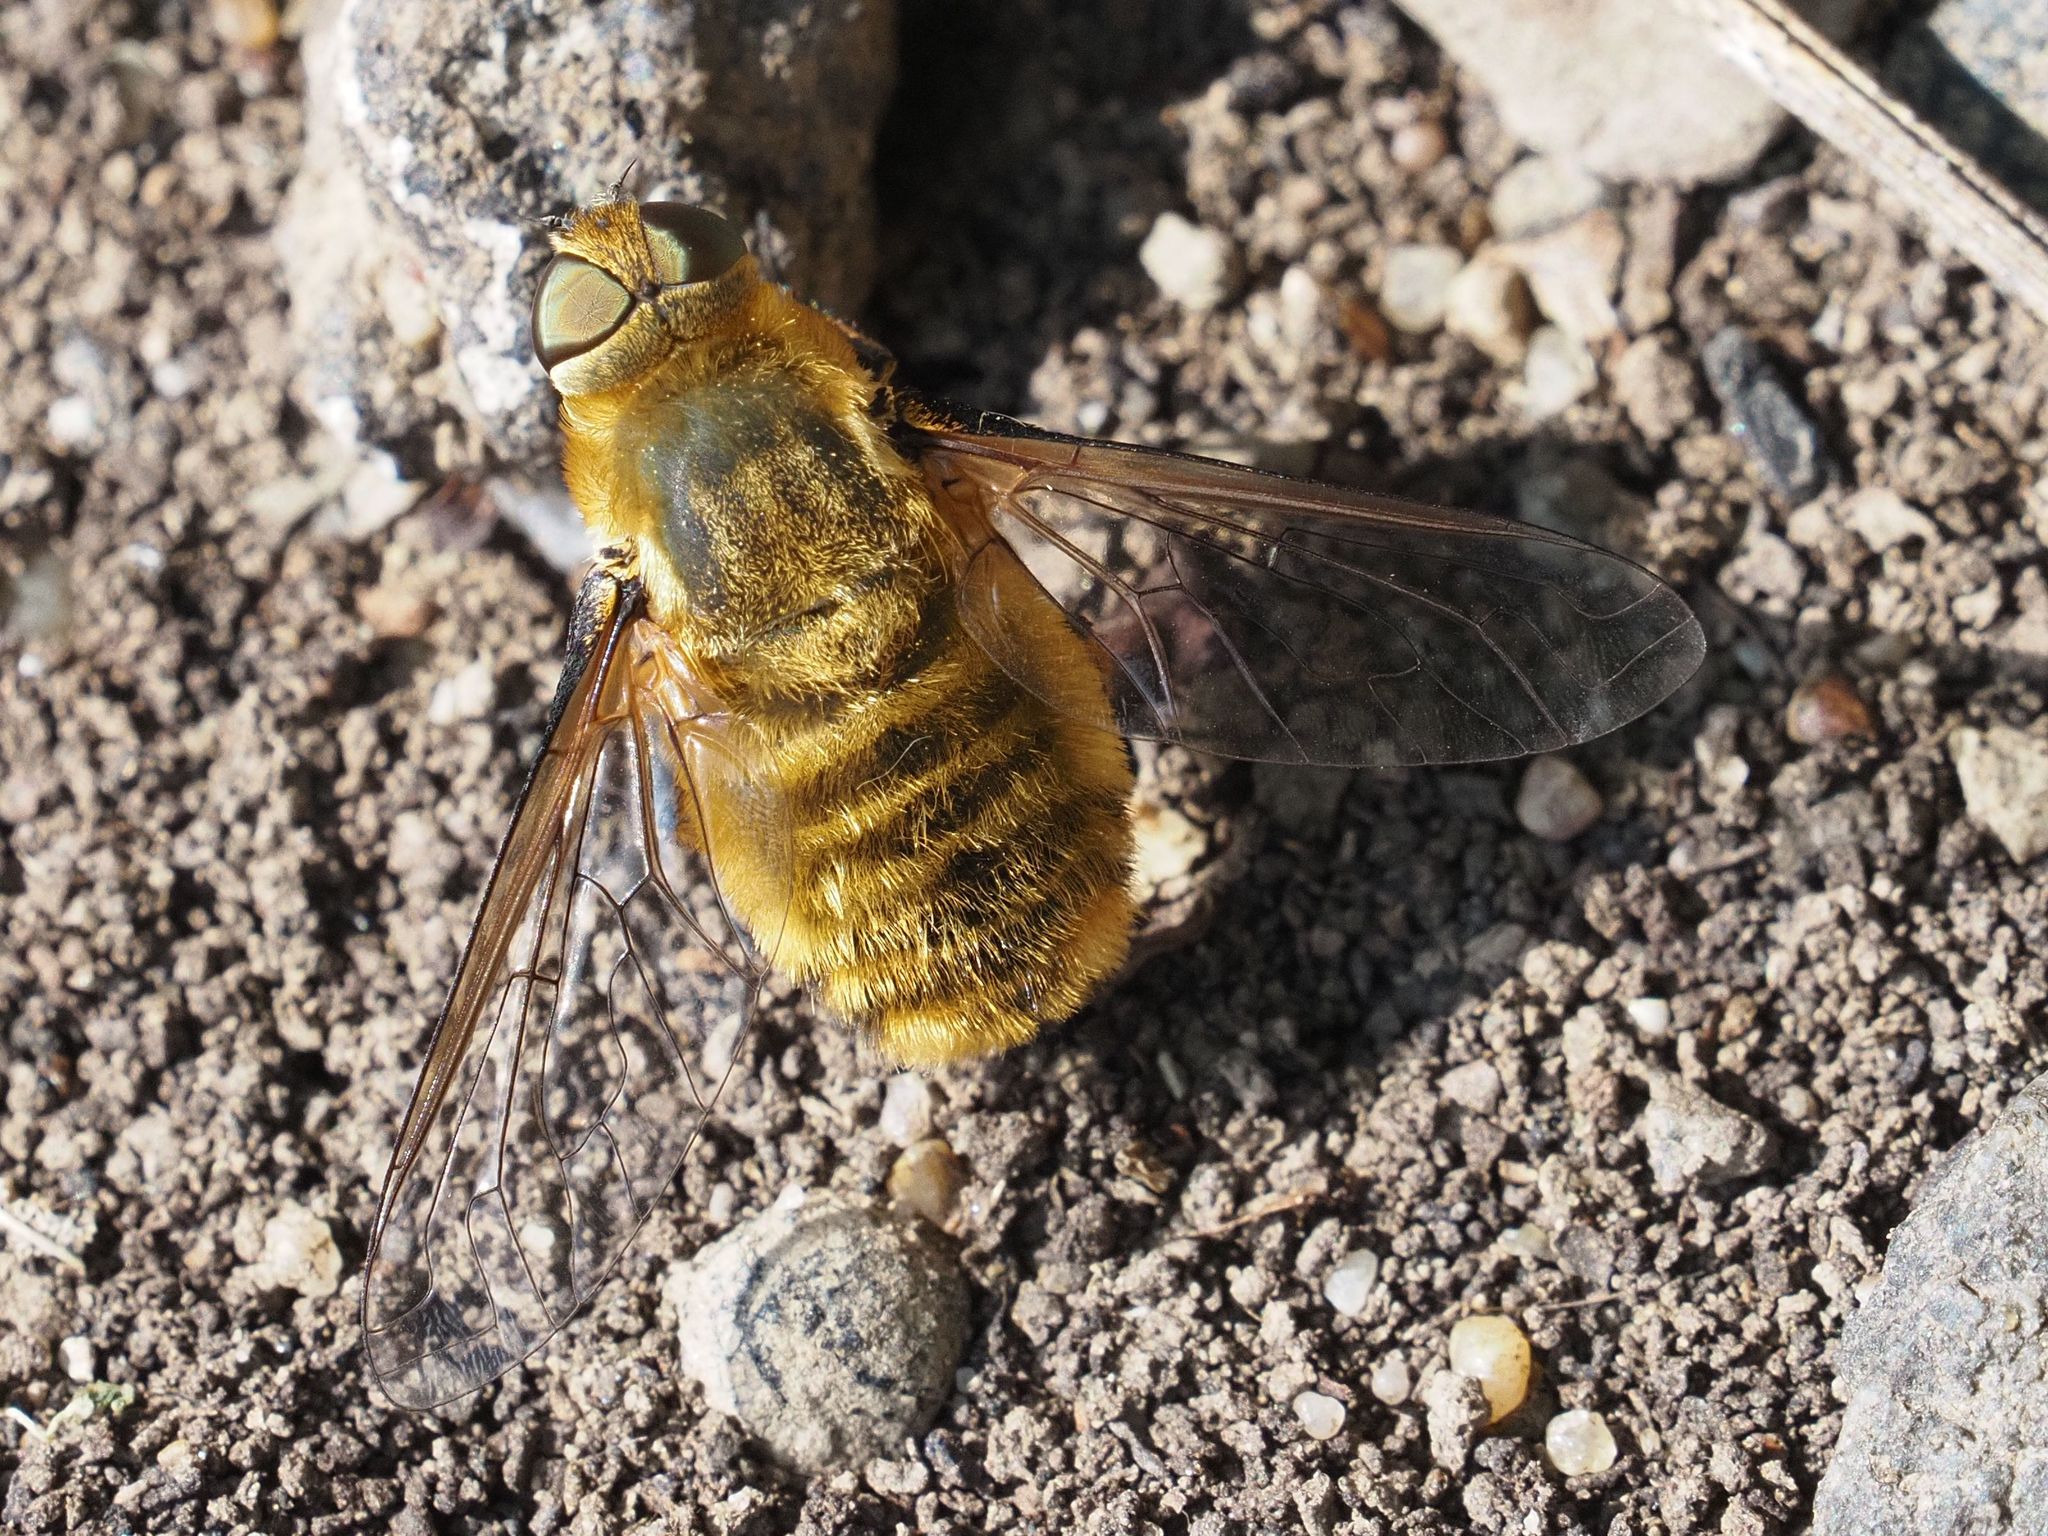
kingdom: Animalia
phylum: Arthropoda
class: Insecta
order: Diptera
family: Bombyliidae
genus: Villa
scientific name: Villa hottentotta
